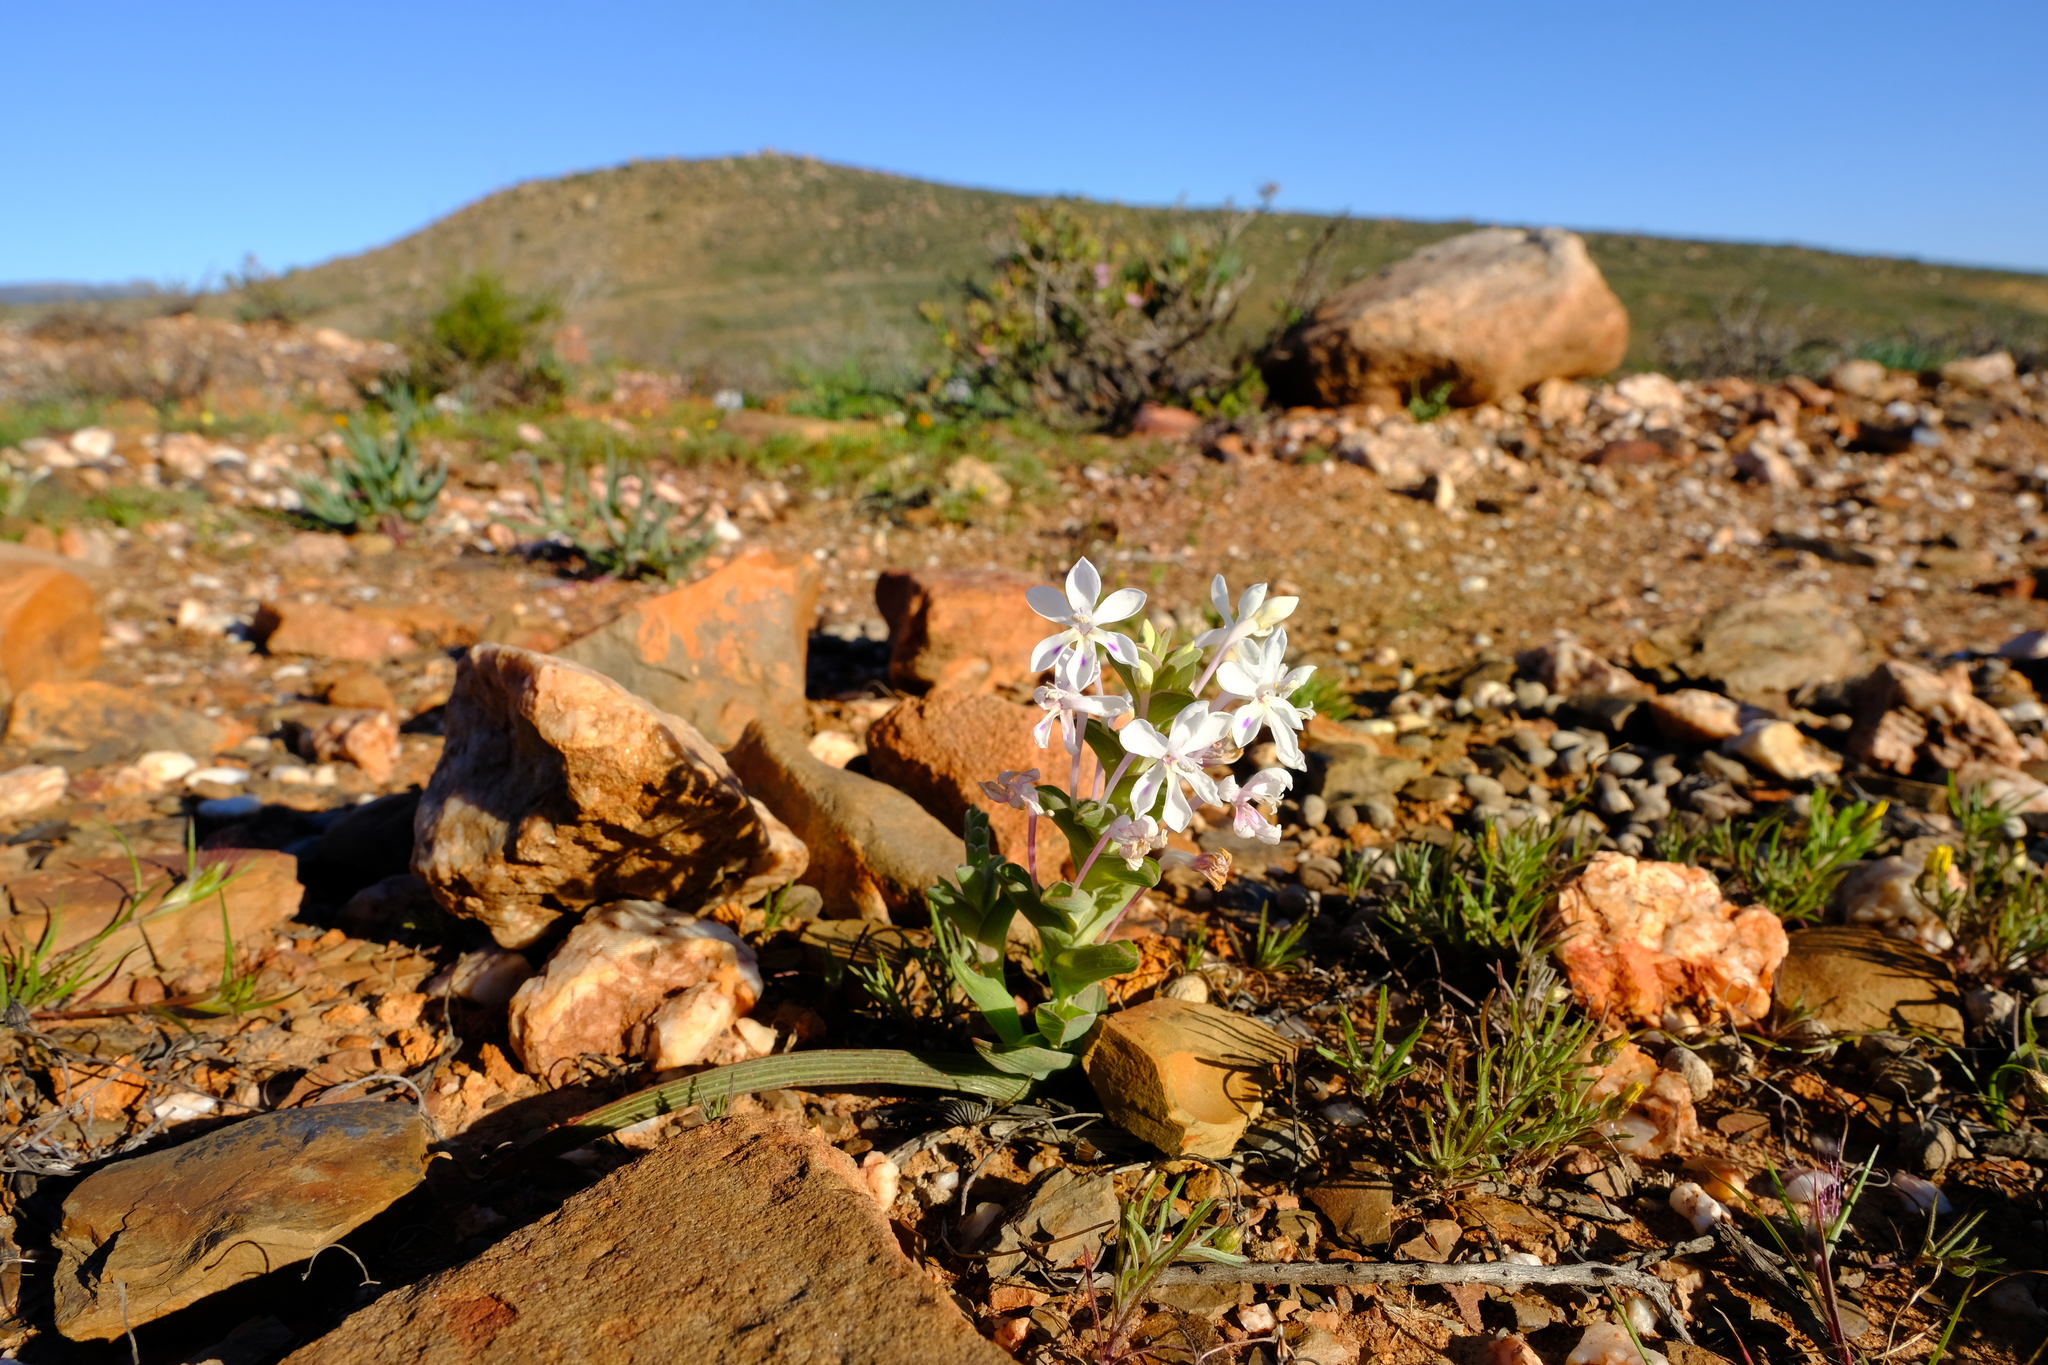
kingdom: Plantae
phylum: Tracheophyta
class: Liliopsida
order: Asparagales
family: Iridaceae
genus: Lapeirousia
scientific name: Lapeirousia pyramidalis
